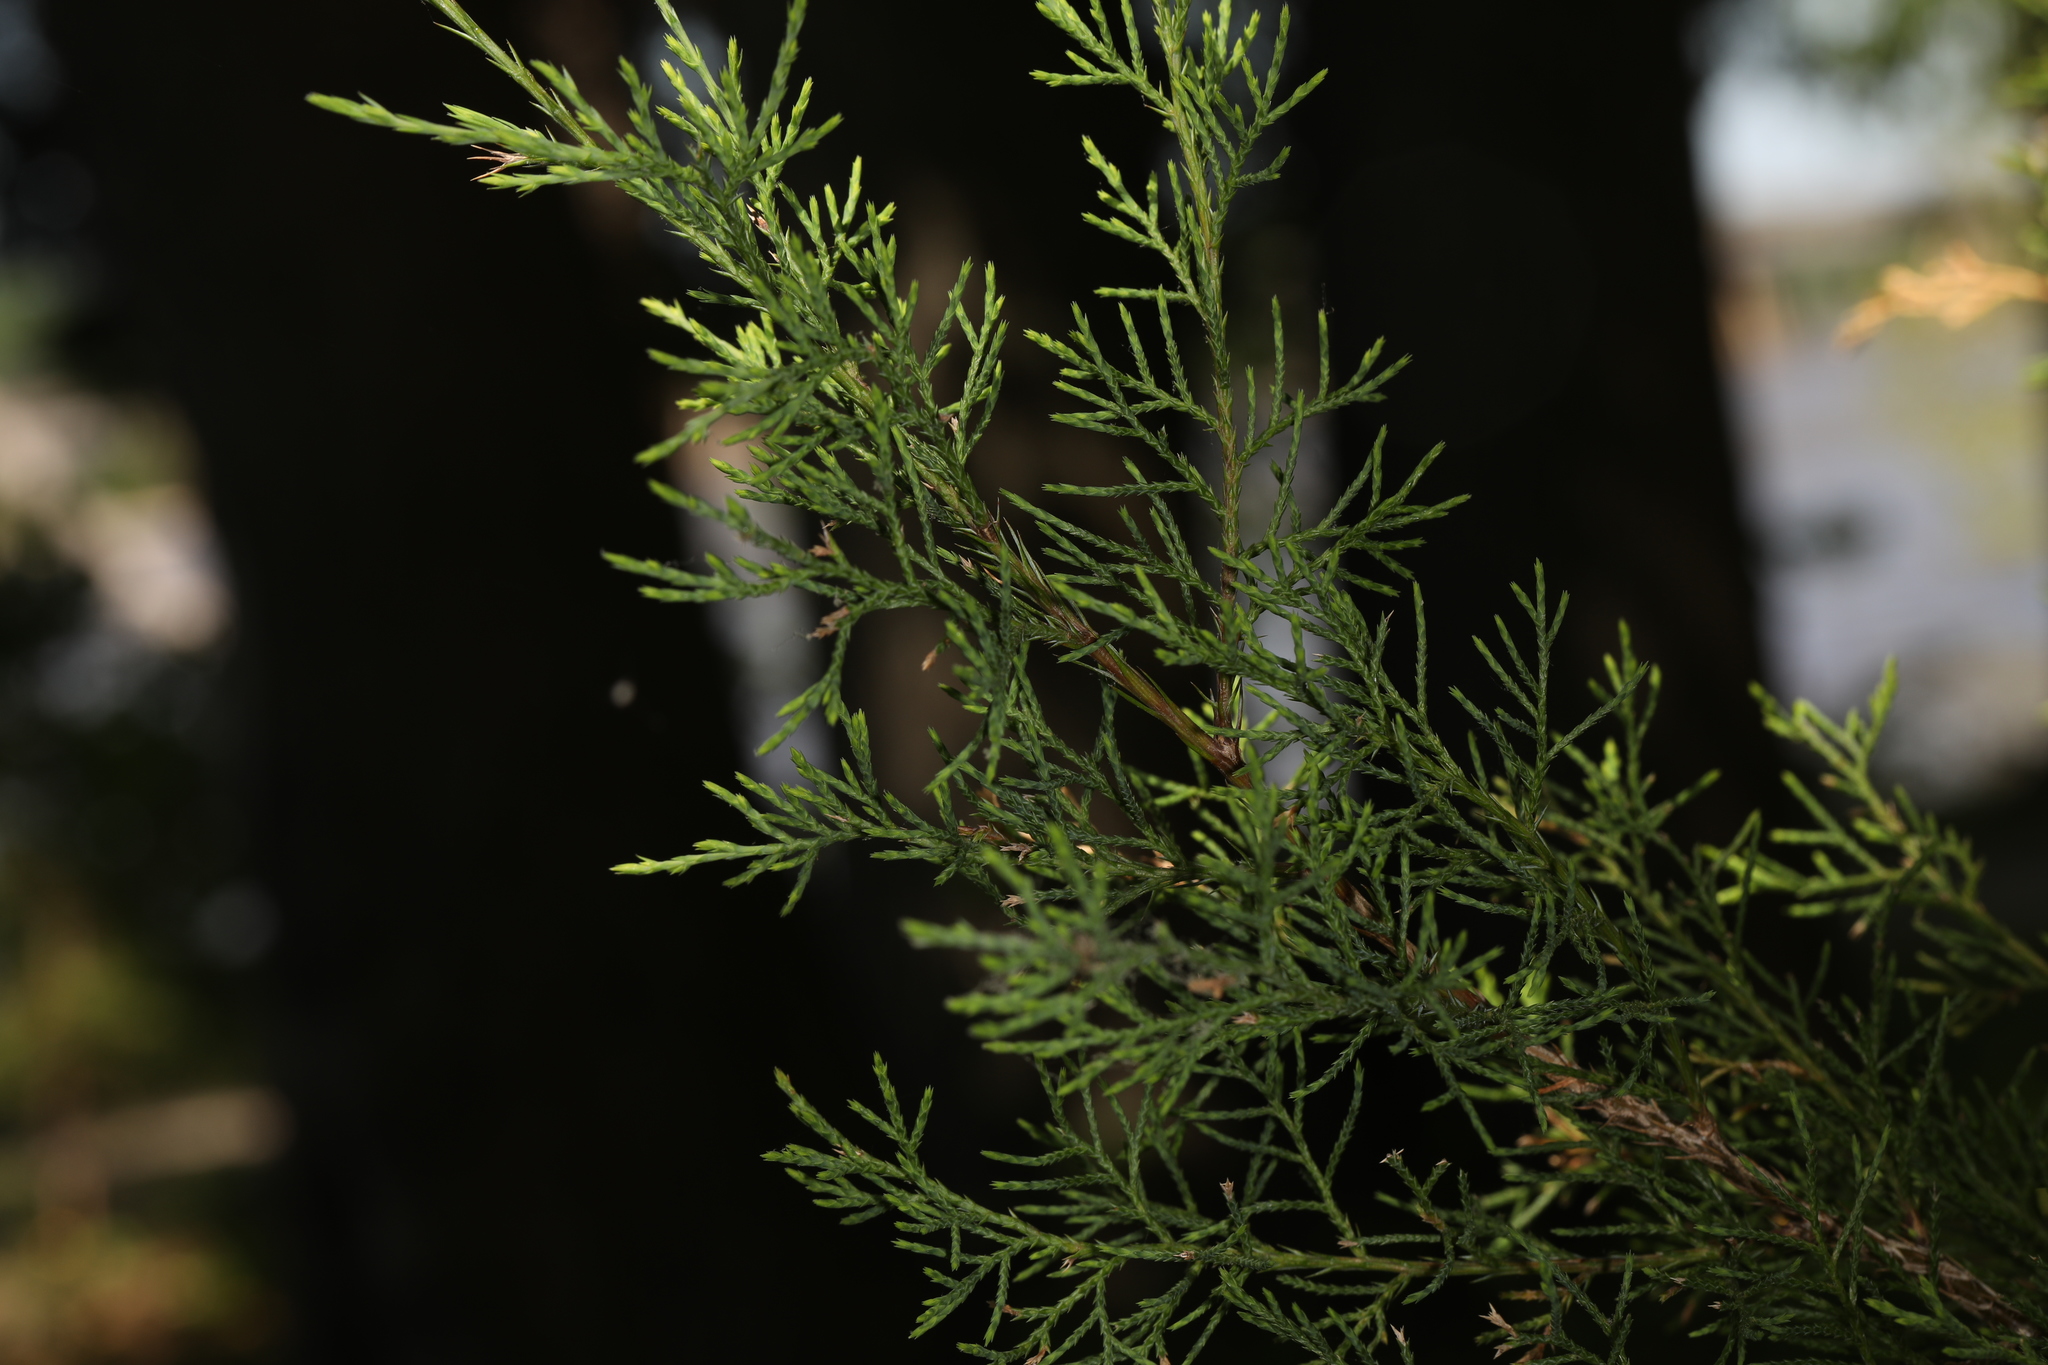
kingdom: Plantae
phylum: Tracheophyta
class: Pinopsida
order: Pinales
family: Cupressaceae
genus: Juniperus
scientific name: Juniperus virginiana
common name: Red juniper
